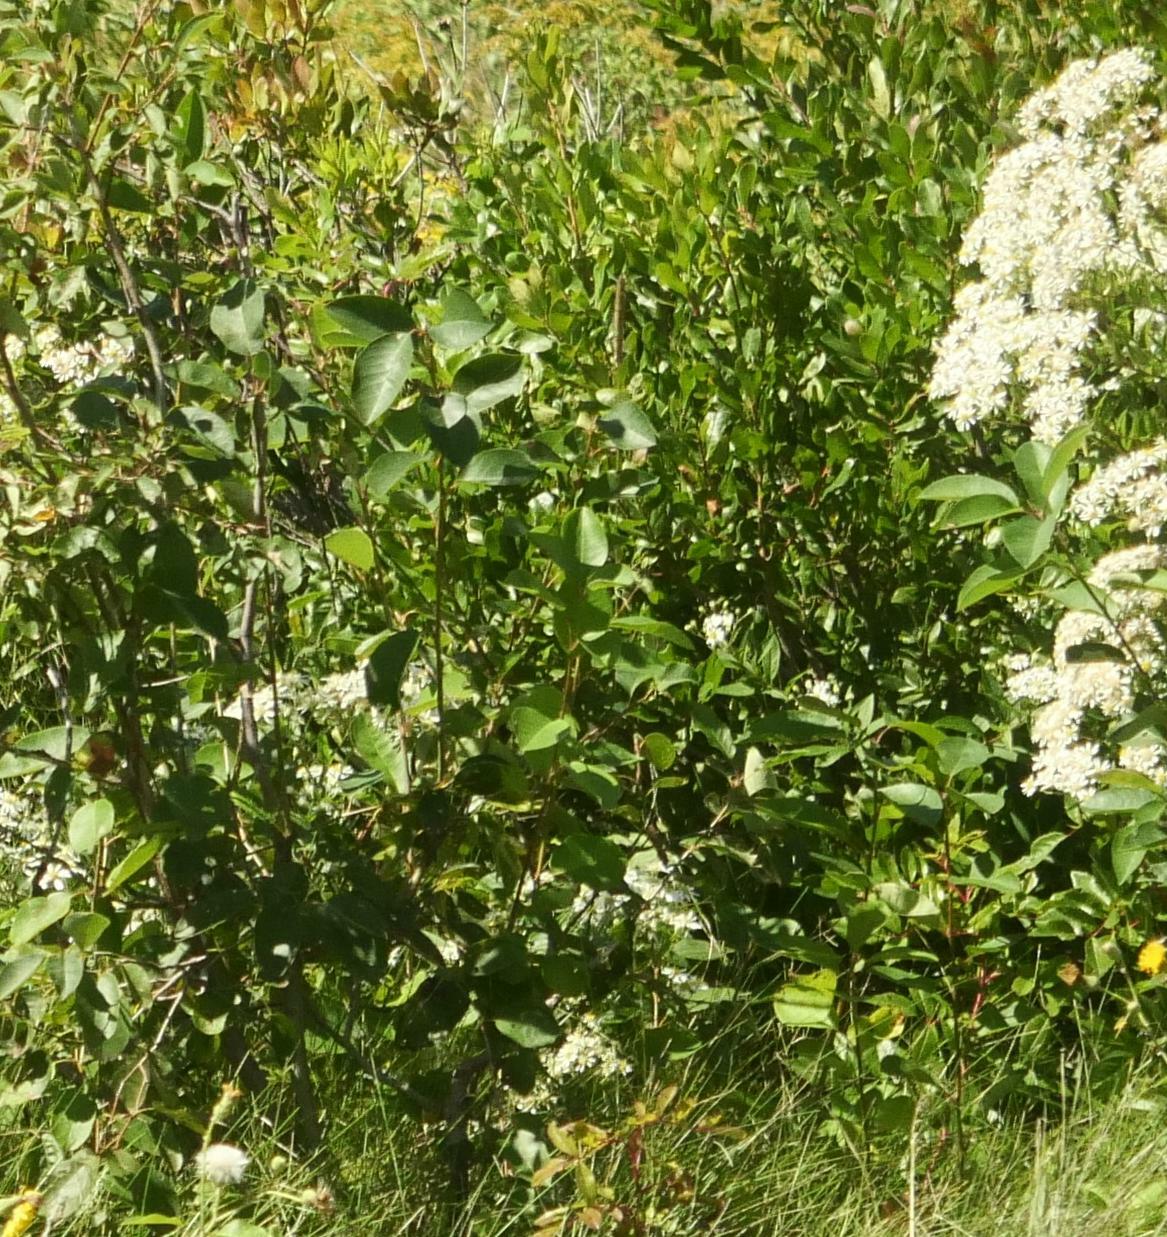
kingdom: Plantae
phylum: Tracheophyta
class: Magnoliopsida
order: Rosales
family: Rosaceae
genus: Prunus
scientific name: Prunus virginiana
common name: Chokecherry
